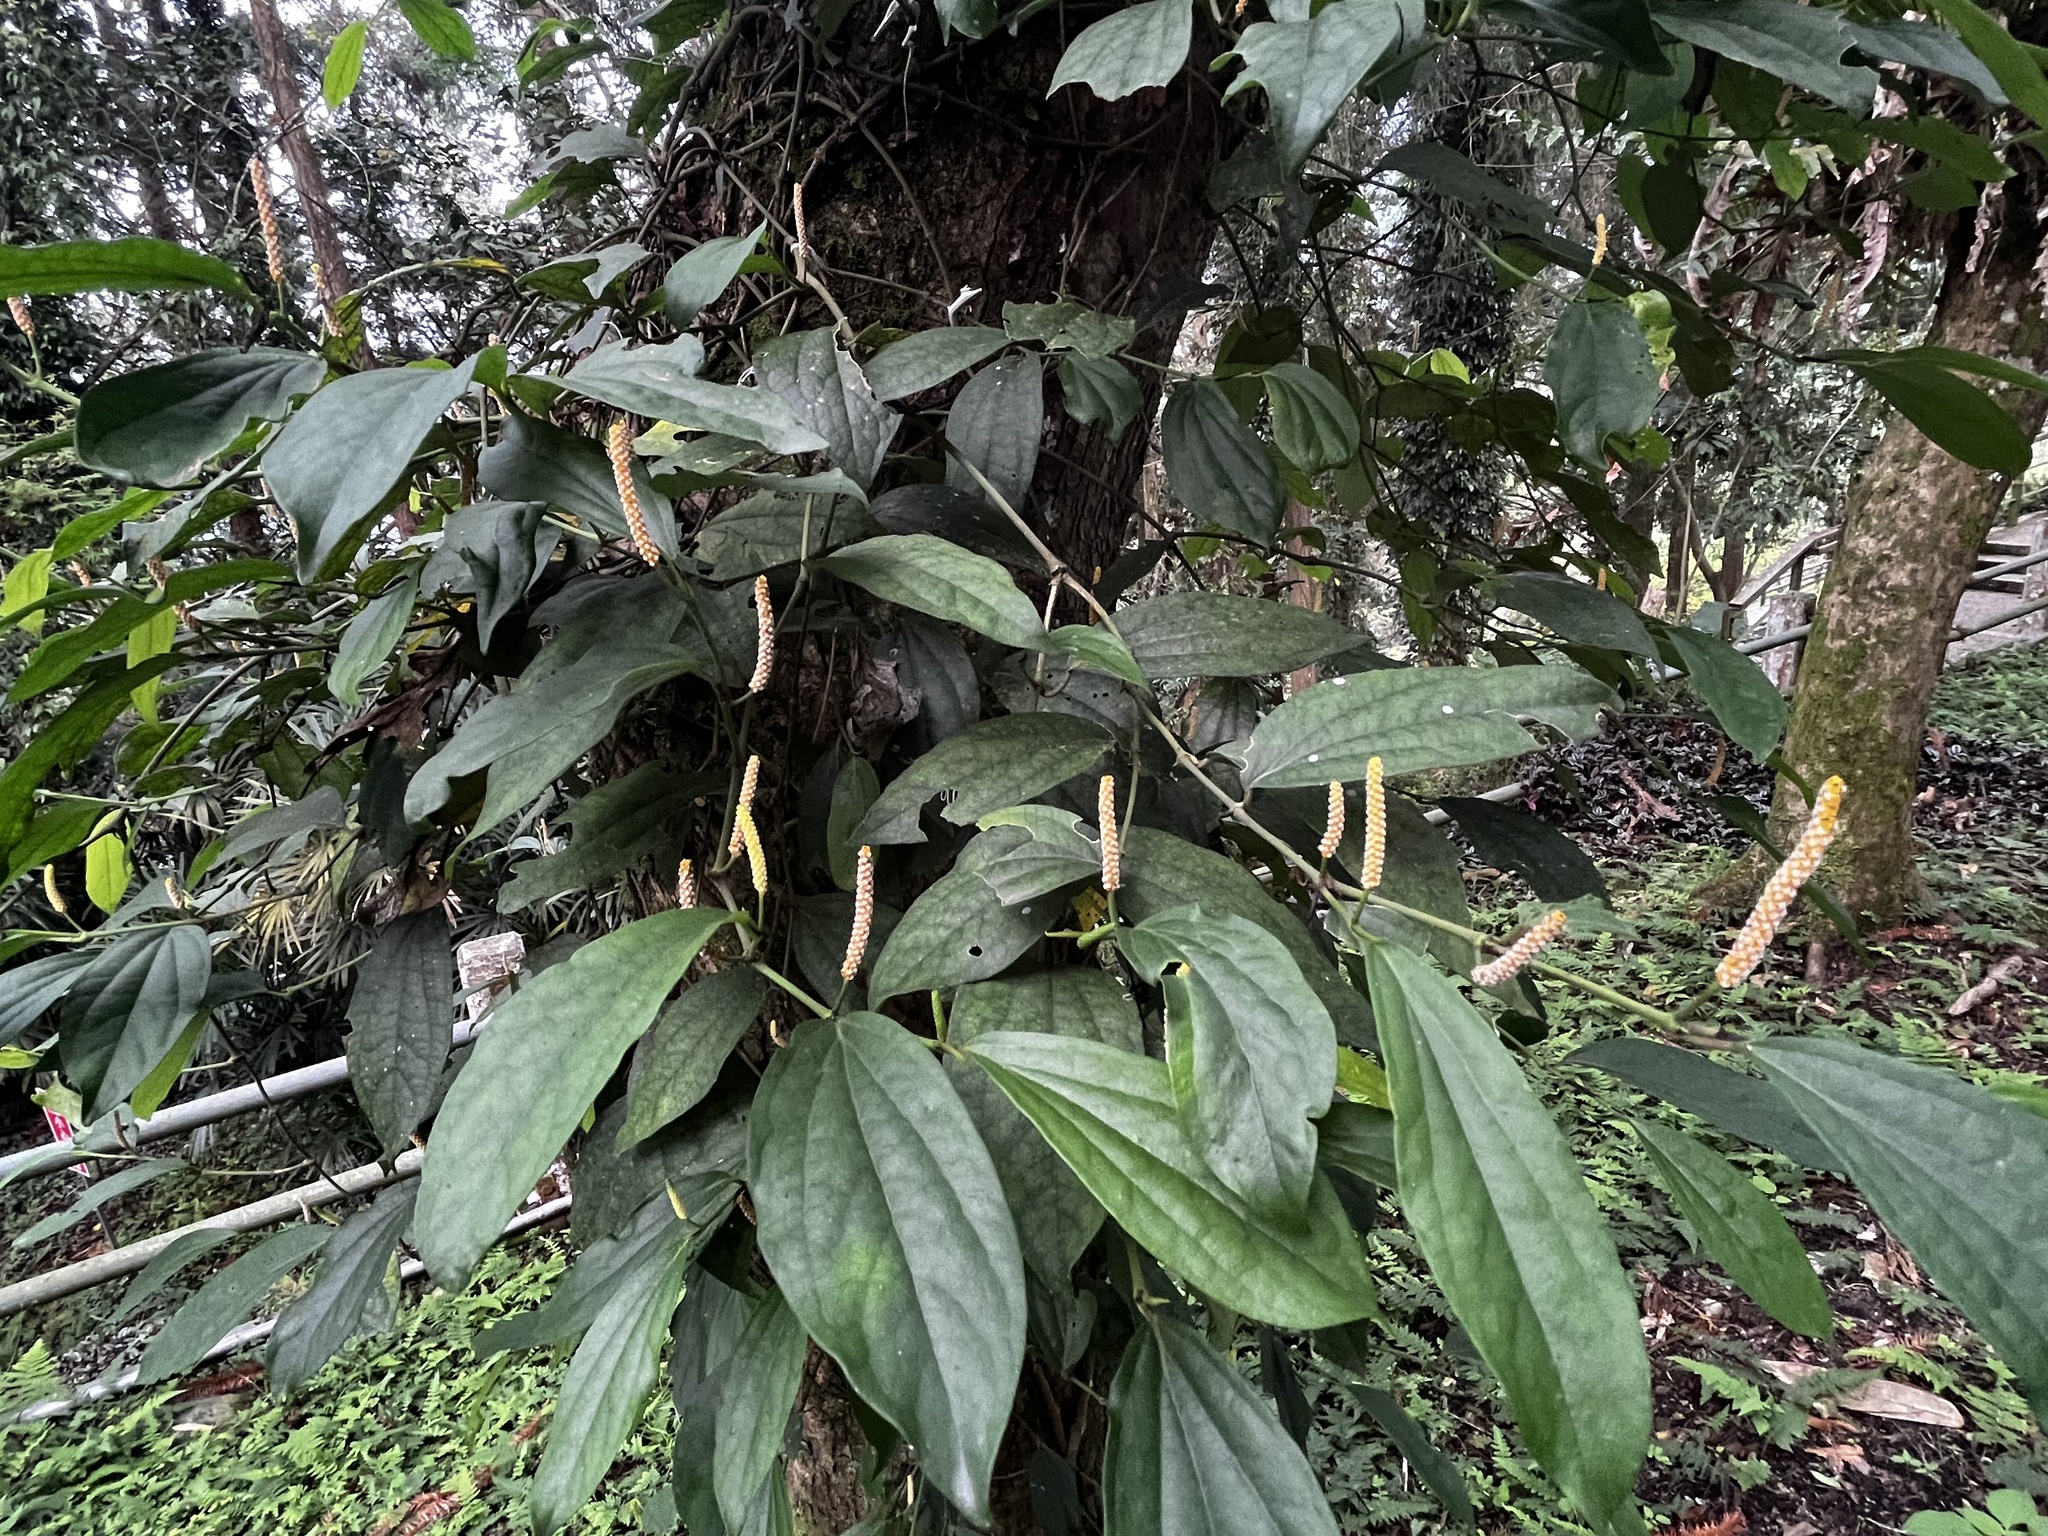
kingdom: Plantae
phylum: Tracheophyta
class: Magnoliopsida
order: Piperales
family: Piperaceae
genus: Piper
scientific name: Piper kadsura
